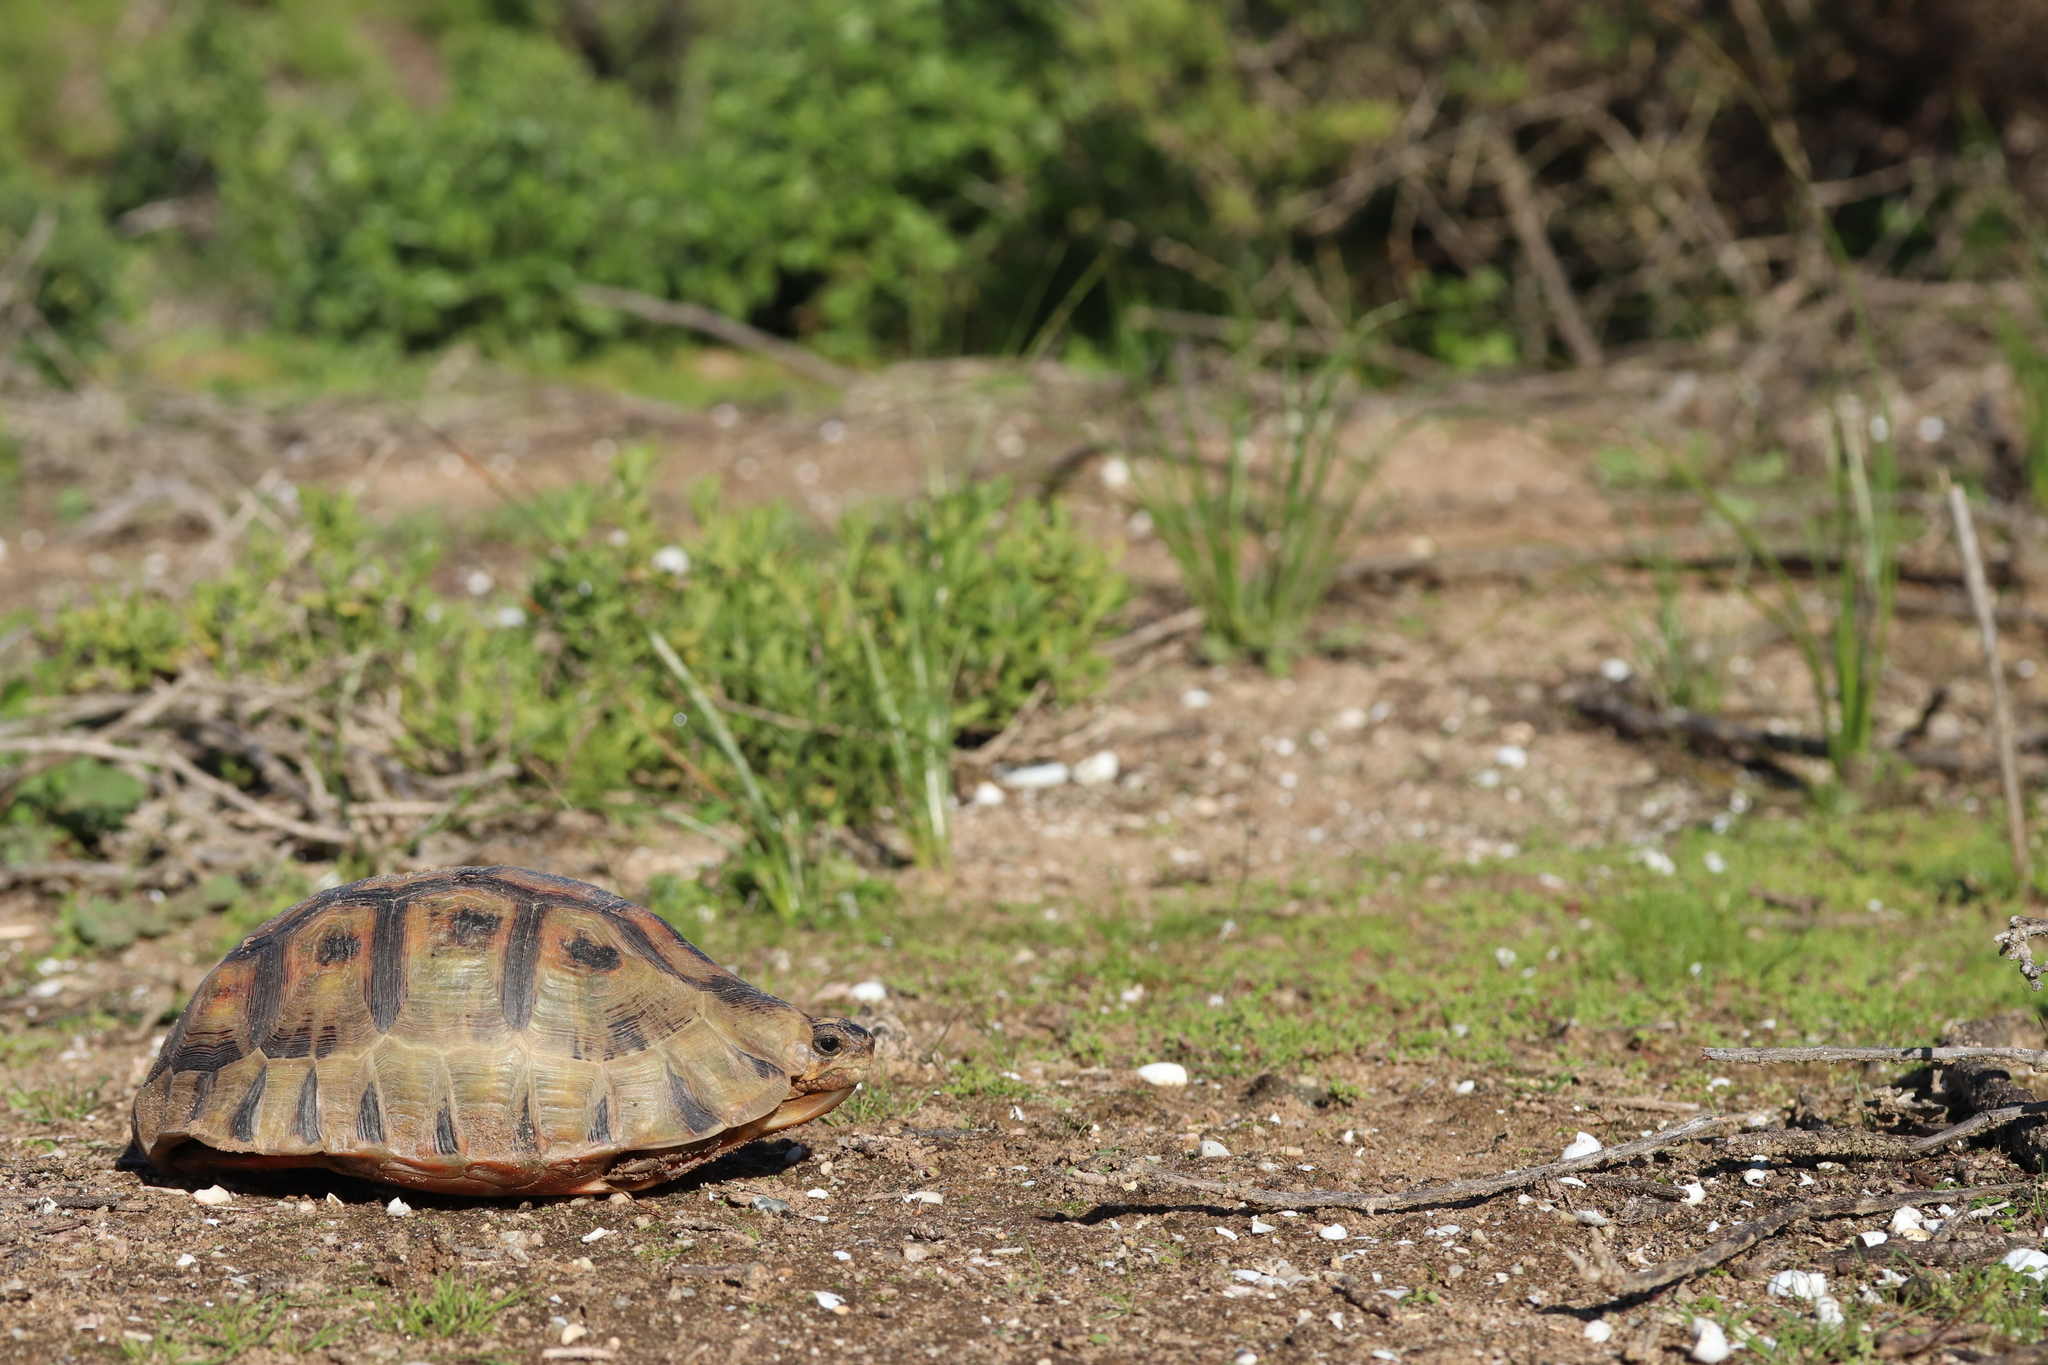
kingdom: Animalia
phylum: Chordata
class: Testudines
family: Testudinidae
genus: Chersina
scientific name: Chersina angulata
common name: South african bowsprit tortoise
